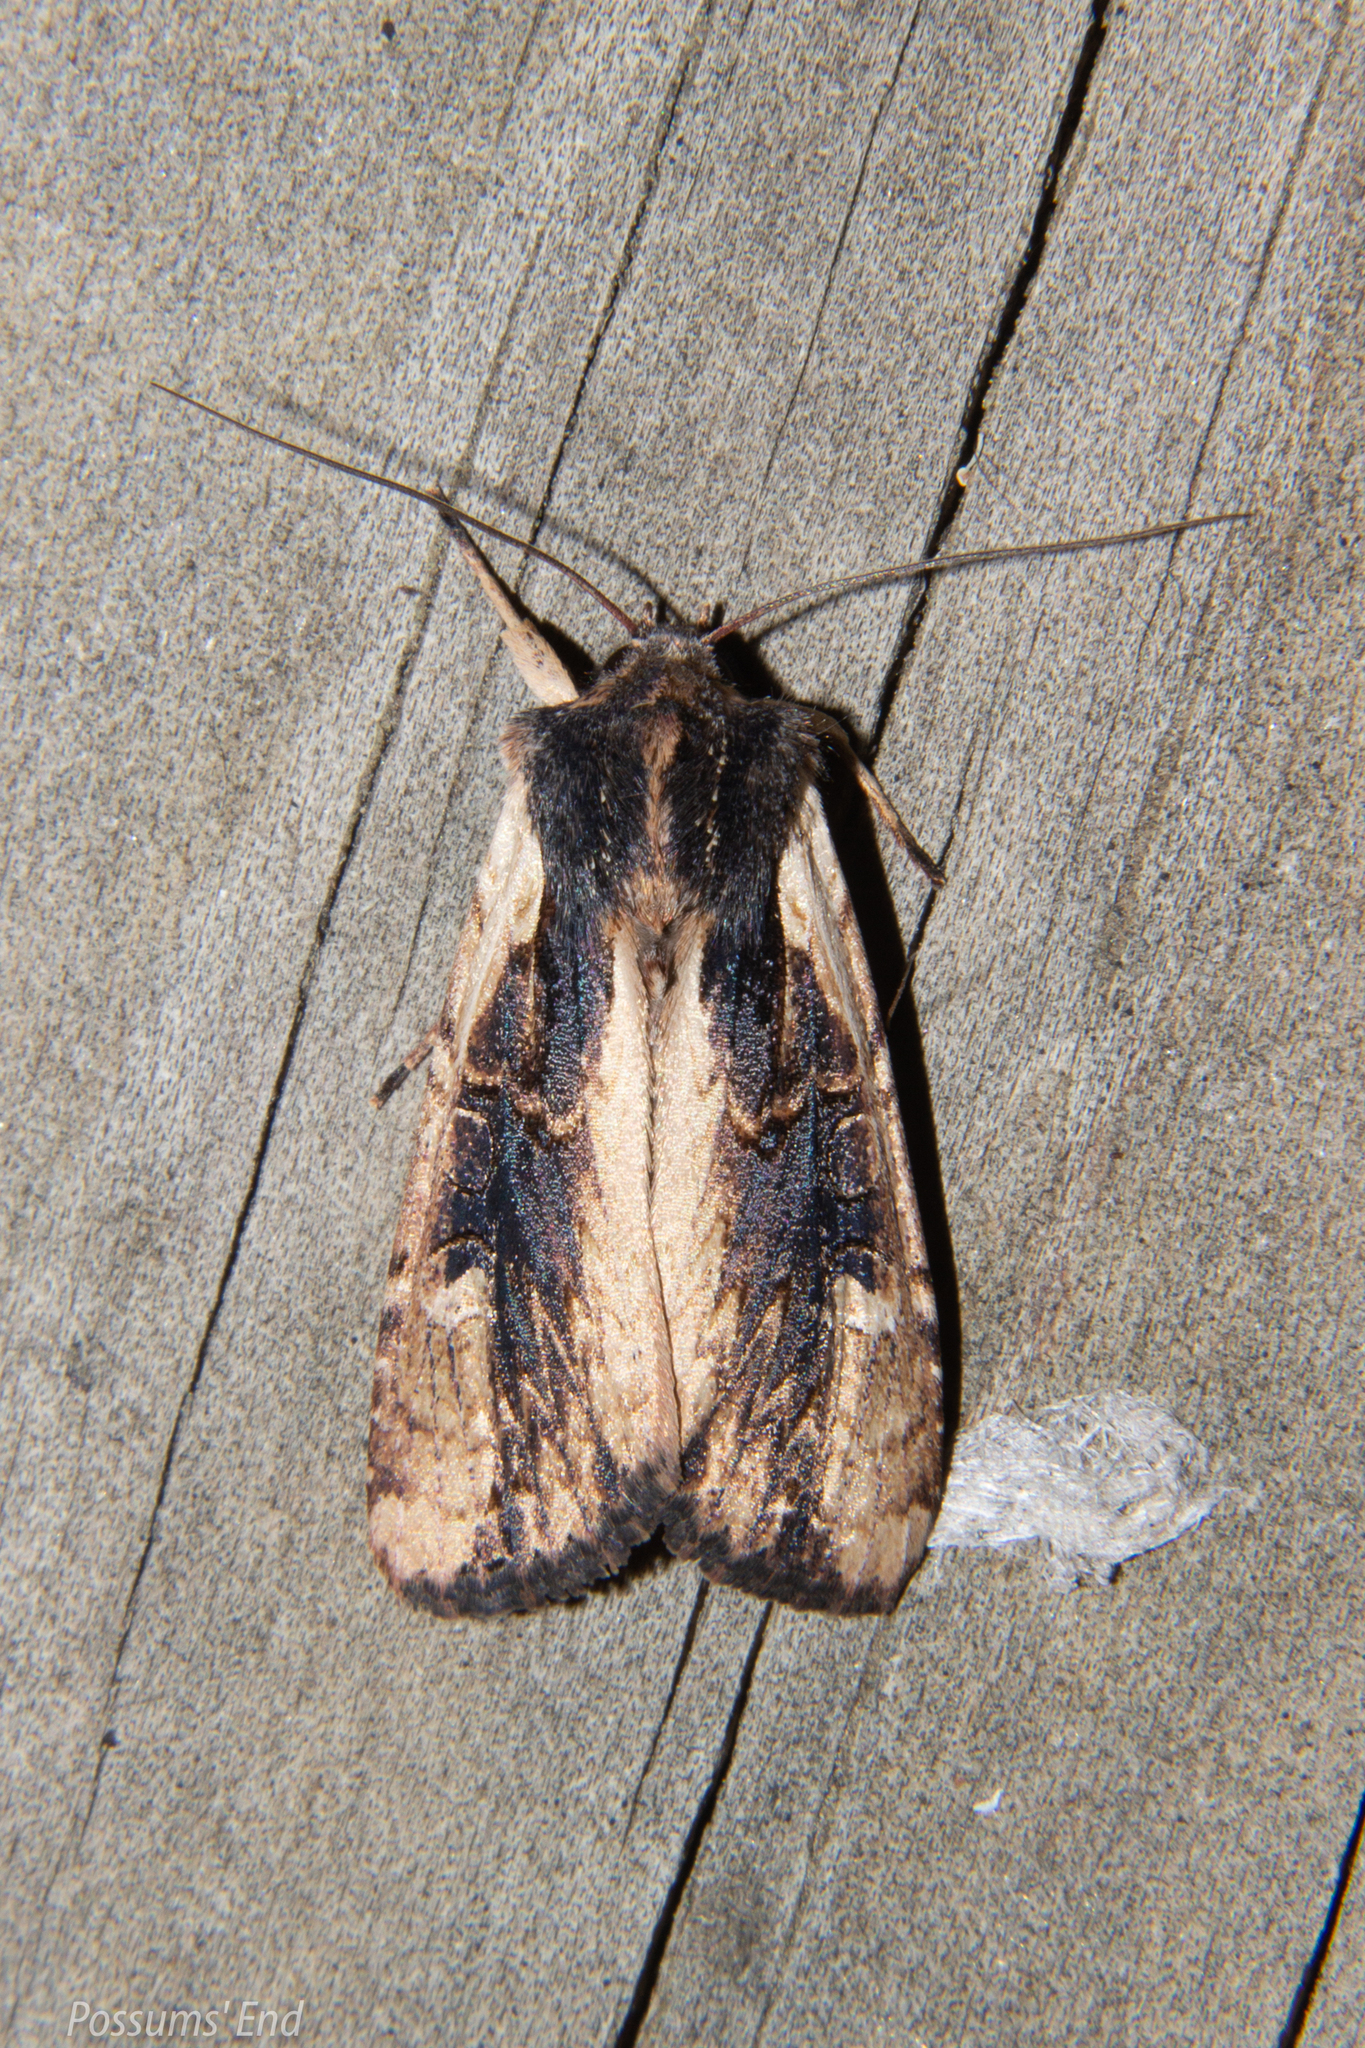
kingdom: Animalia
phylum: Arthropoda
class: Insecta
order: Lepidoptera
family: Noctuidae
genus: Ichneutica
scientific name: Ichneutica omoplaca
